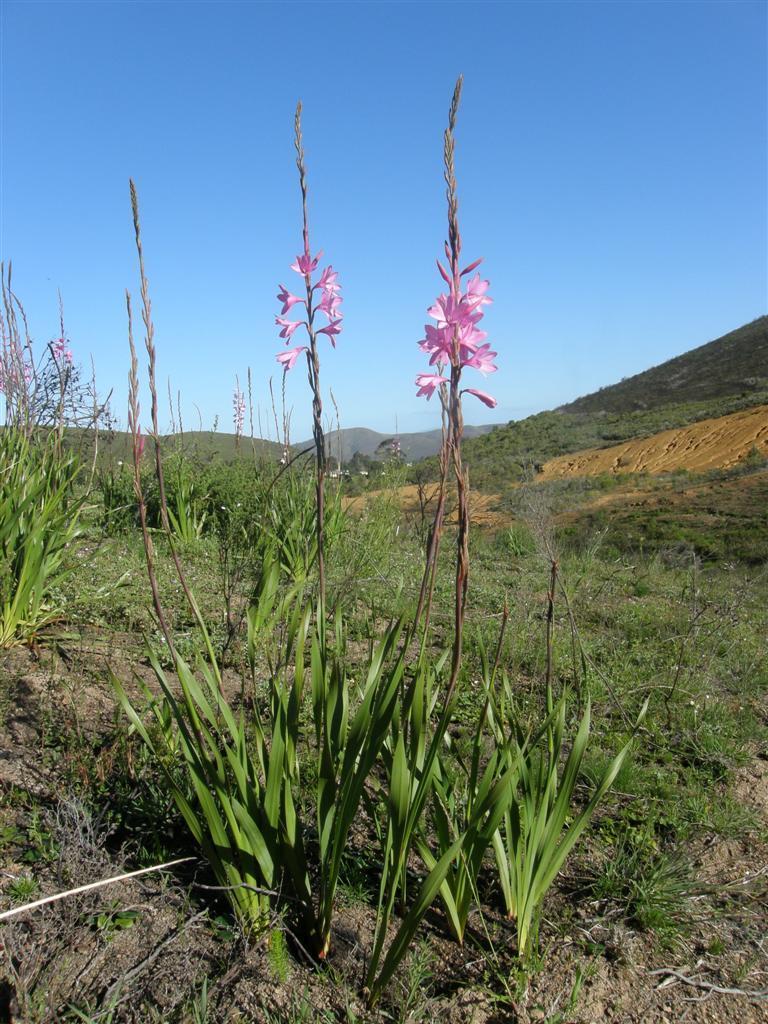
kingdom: Plantae
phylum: Tracheophyta
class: Liliopsida
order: Asparagales
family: Iridaceae
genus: Watsonia
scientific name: Watsonia borbonica
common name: Bugle-lily
